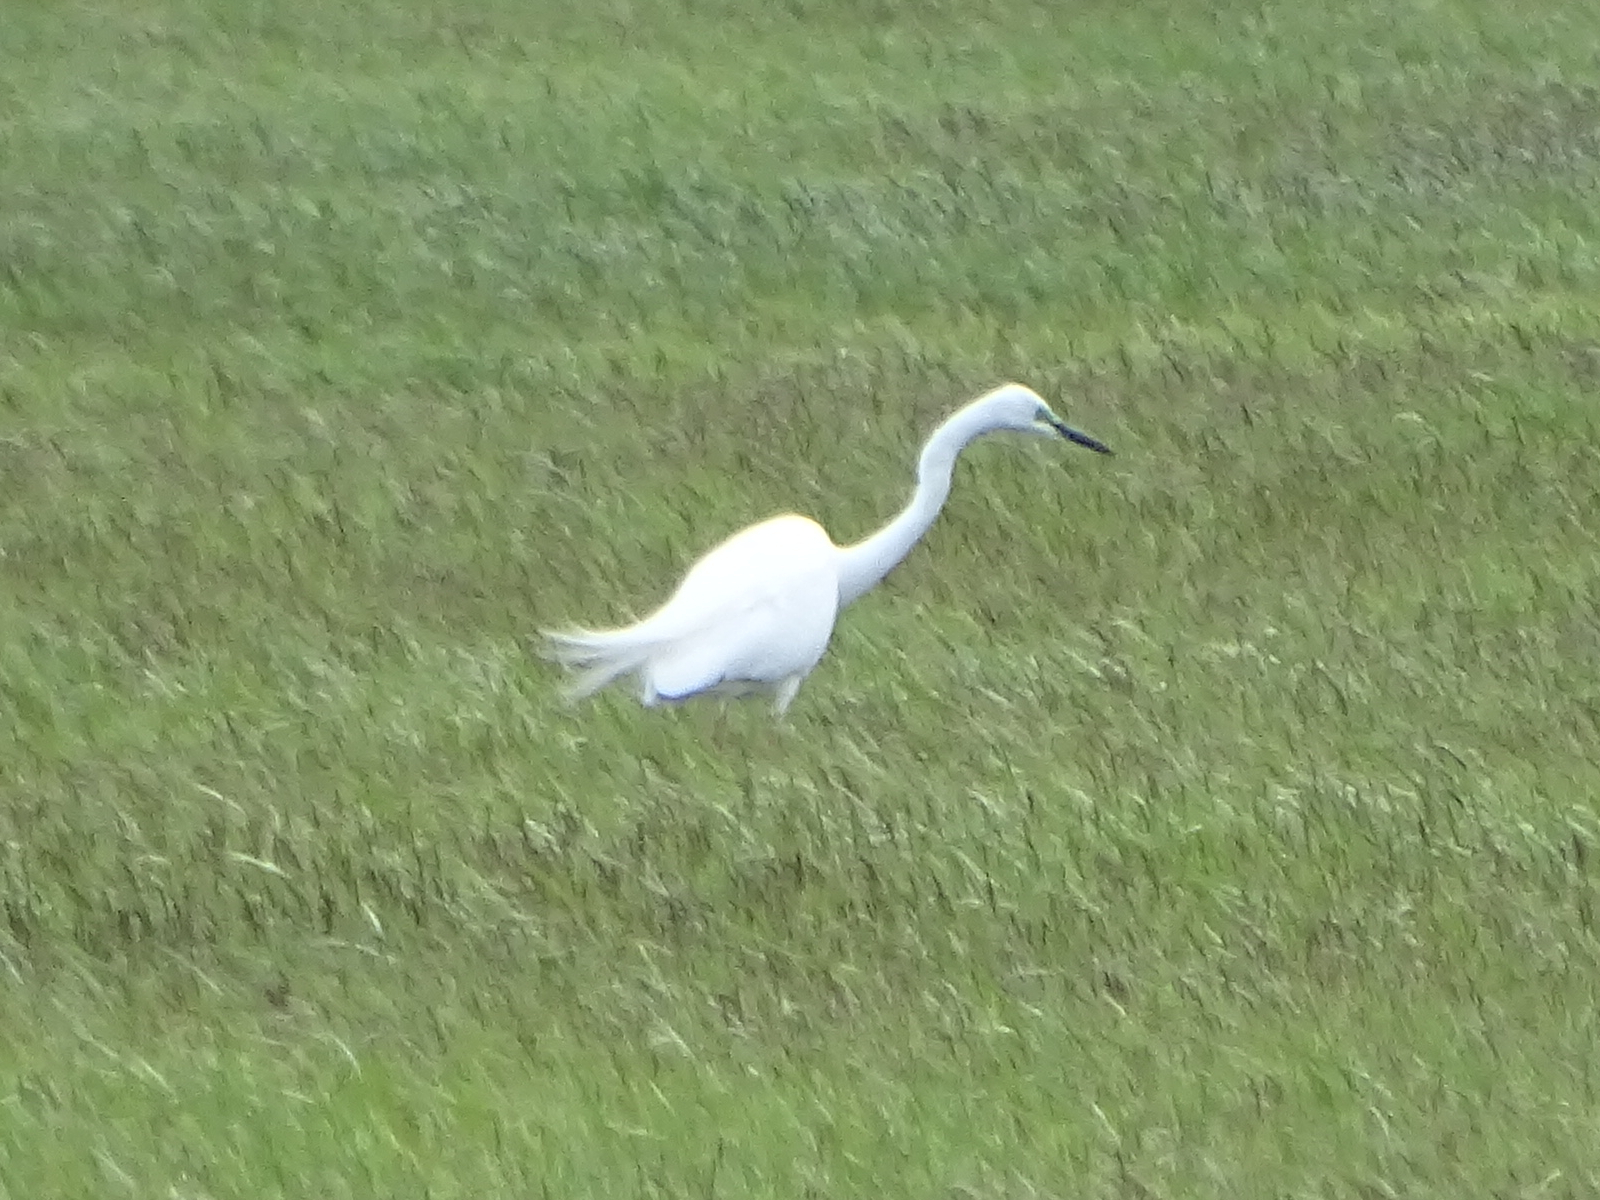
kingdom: Animalia
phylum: Chordata
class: Aves
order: Pelecaniformes
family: Ardeidae
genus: Ardea
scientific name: Ardea alba
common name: Great egret
